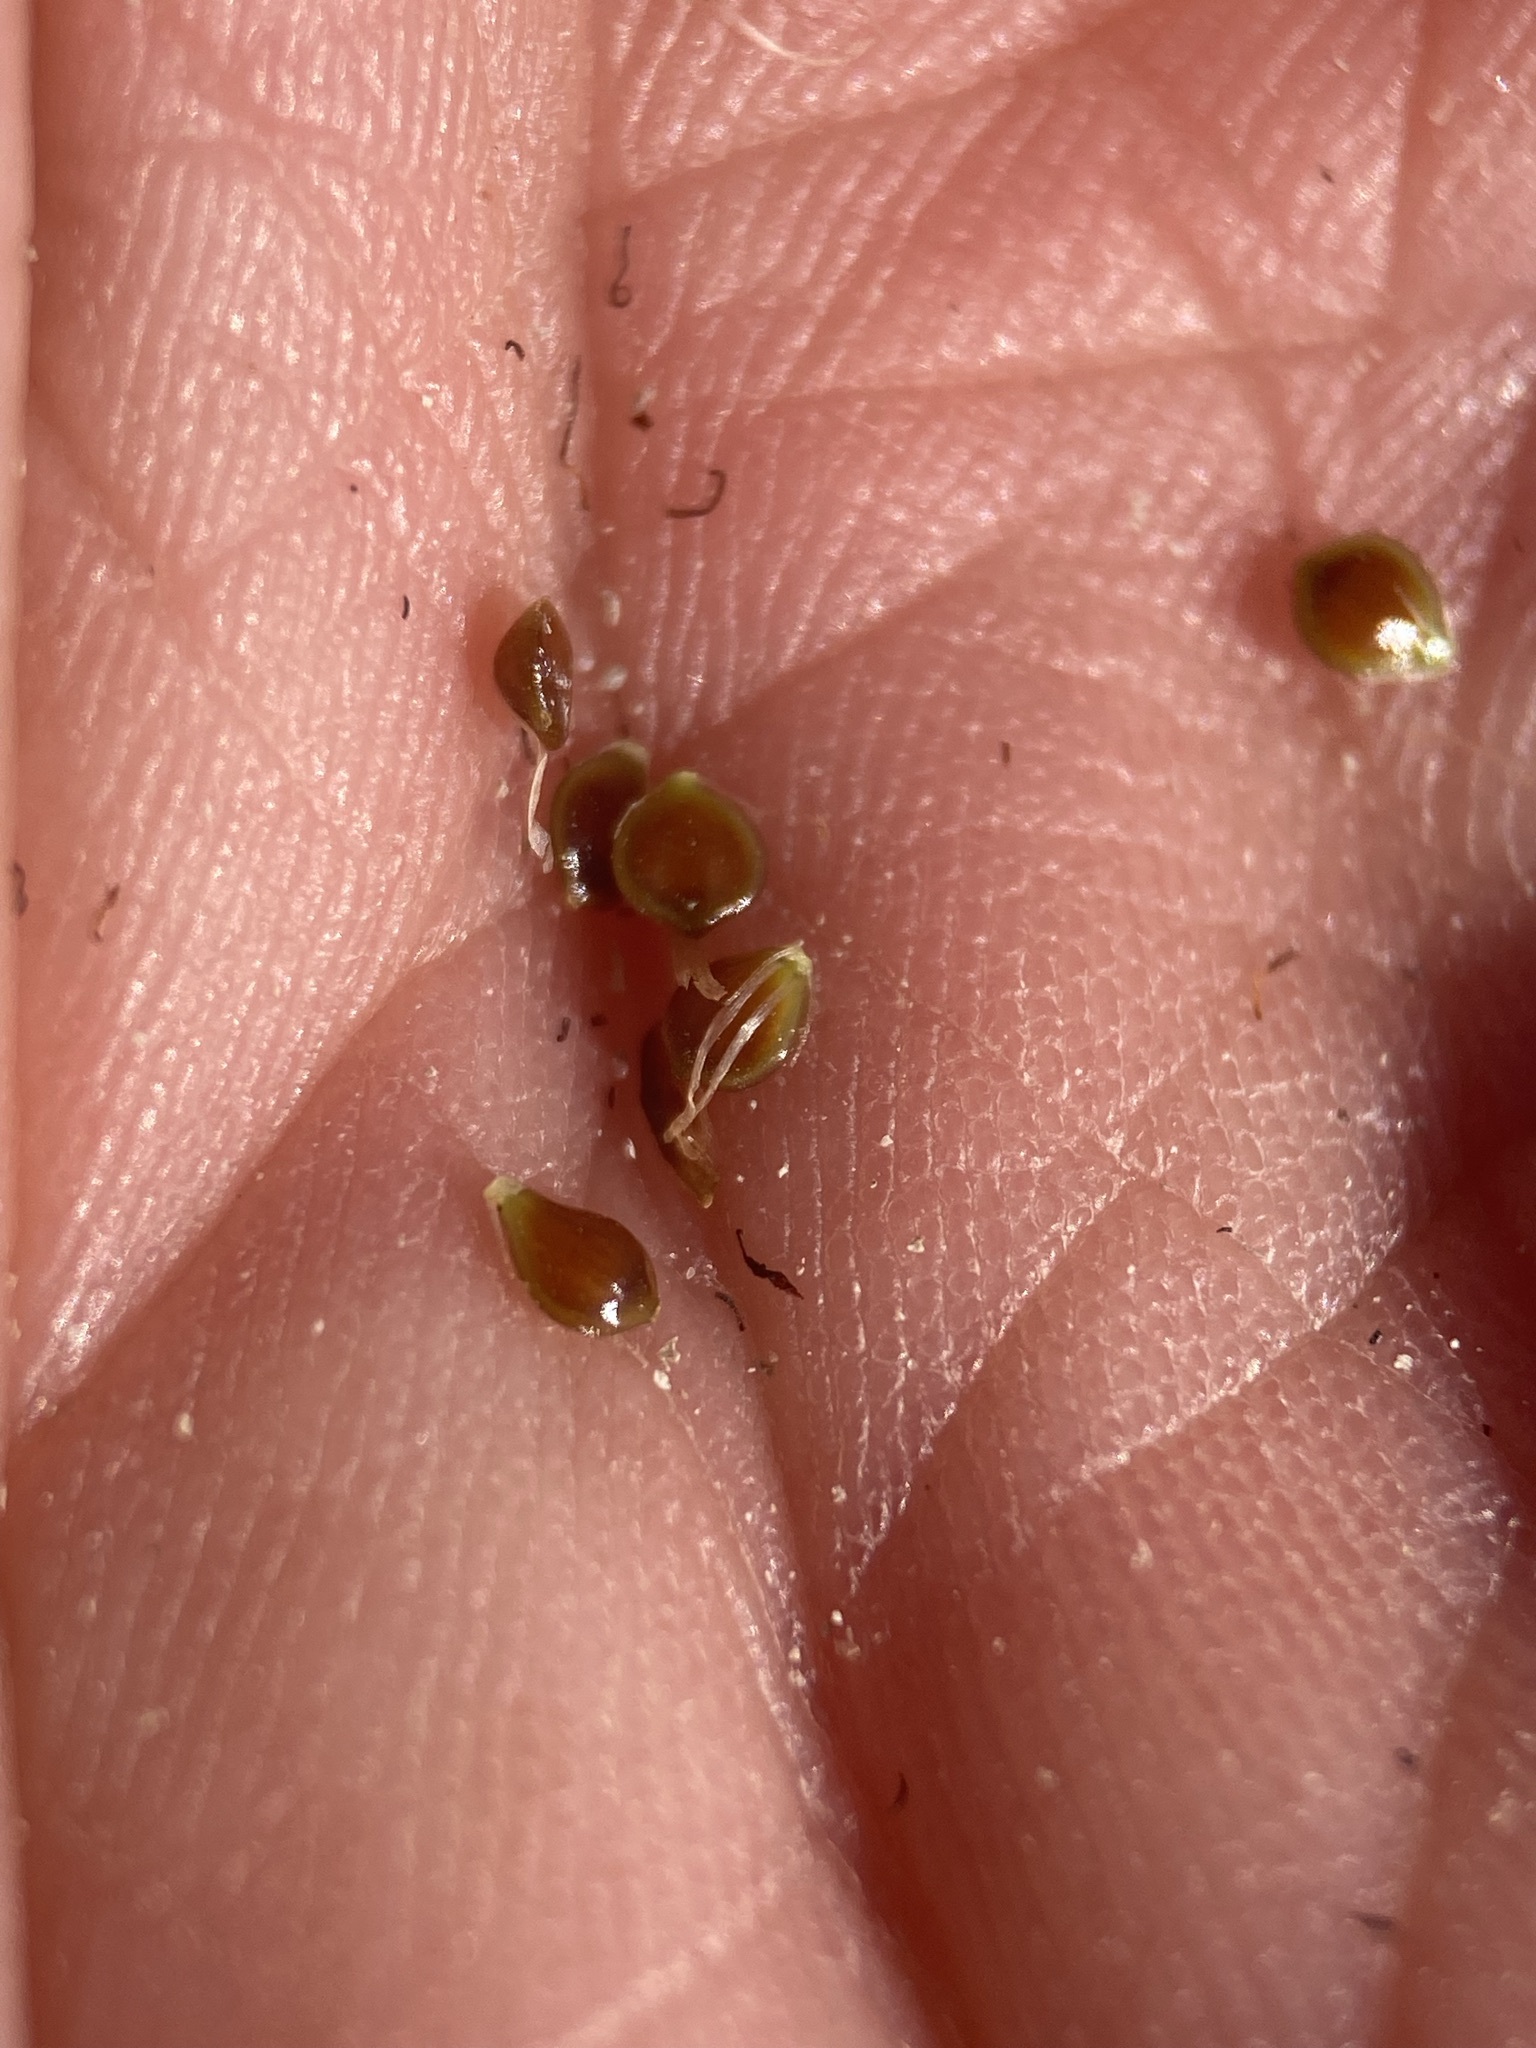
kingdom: Plantae
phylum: Tracheophyta
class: Liliopsida
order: Poales
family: Cyperaceae
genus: Amphiscirpus
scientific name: Amphiscirpus nevadensis
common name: Nevada bulrush
